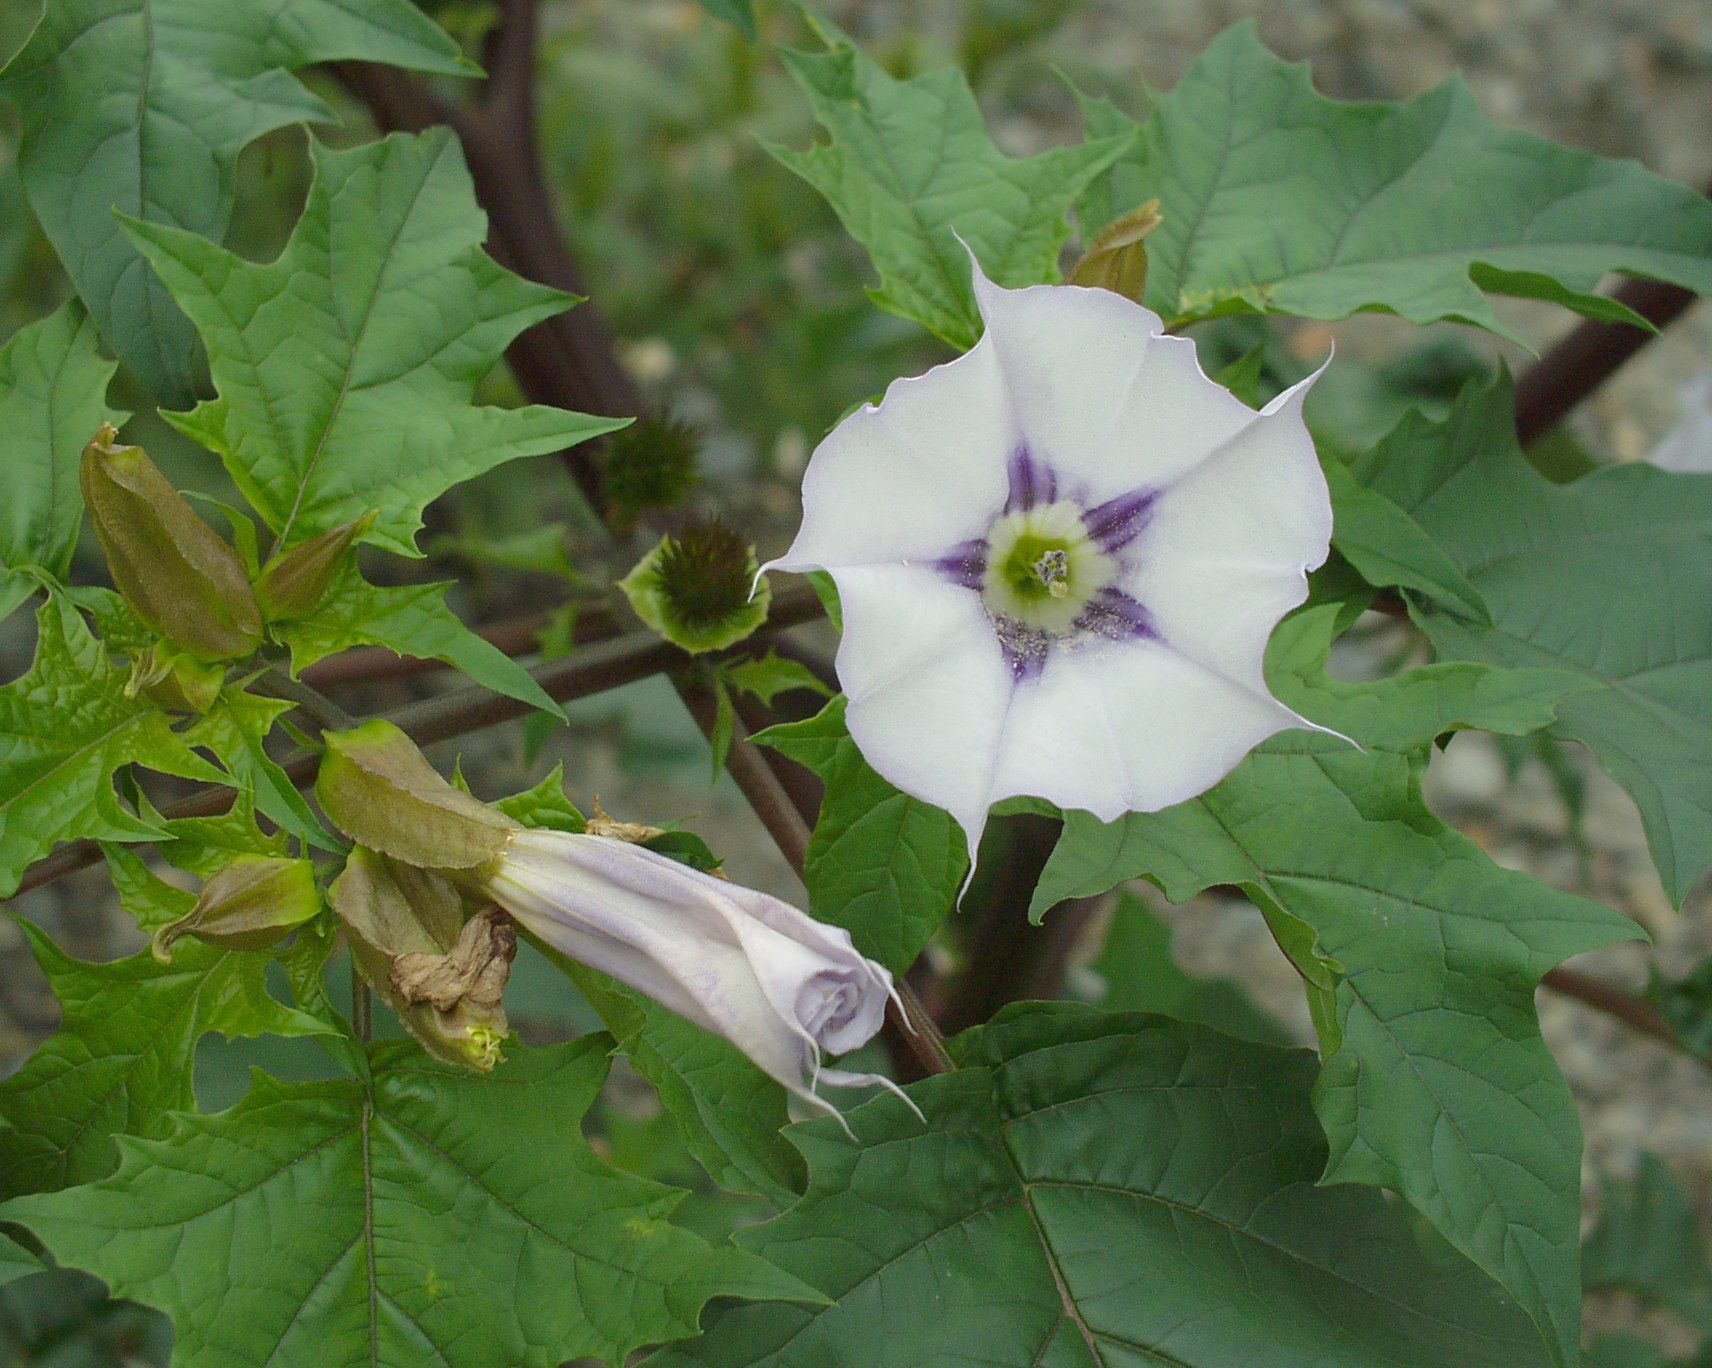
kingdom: Plantae
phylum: Tracheophyta
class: Magnoliopsida
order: Solanales
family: Solanaceae
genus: Datura
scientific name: Datura stramonium
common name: Thorn-apple
